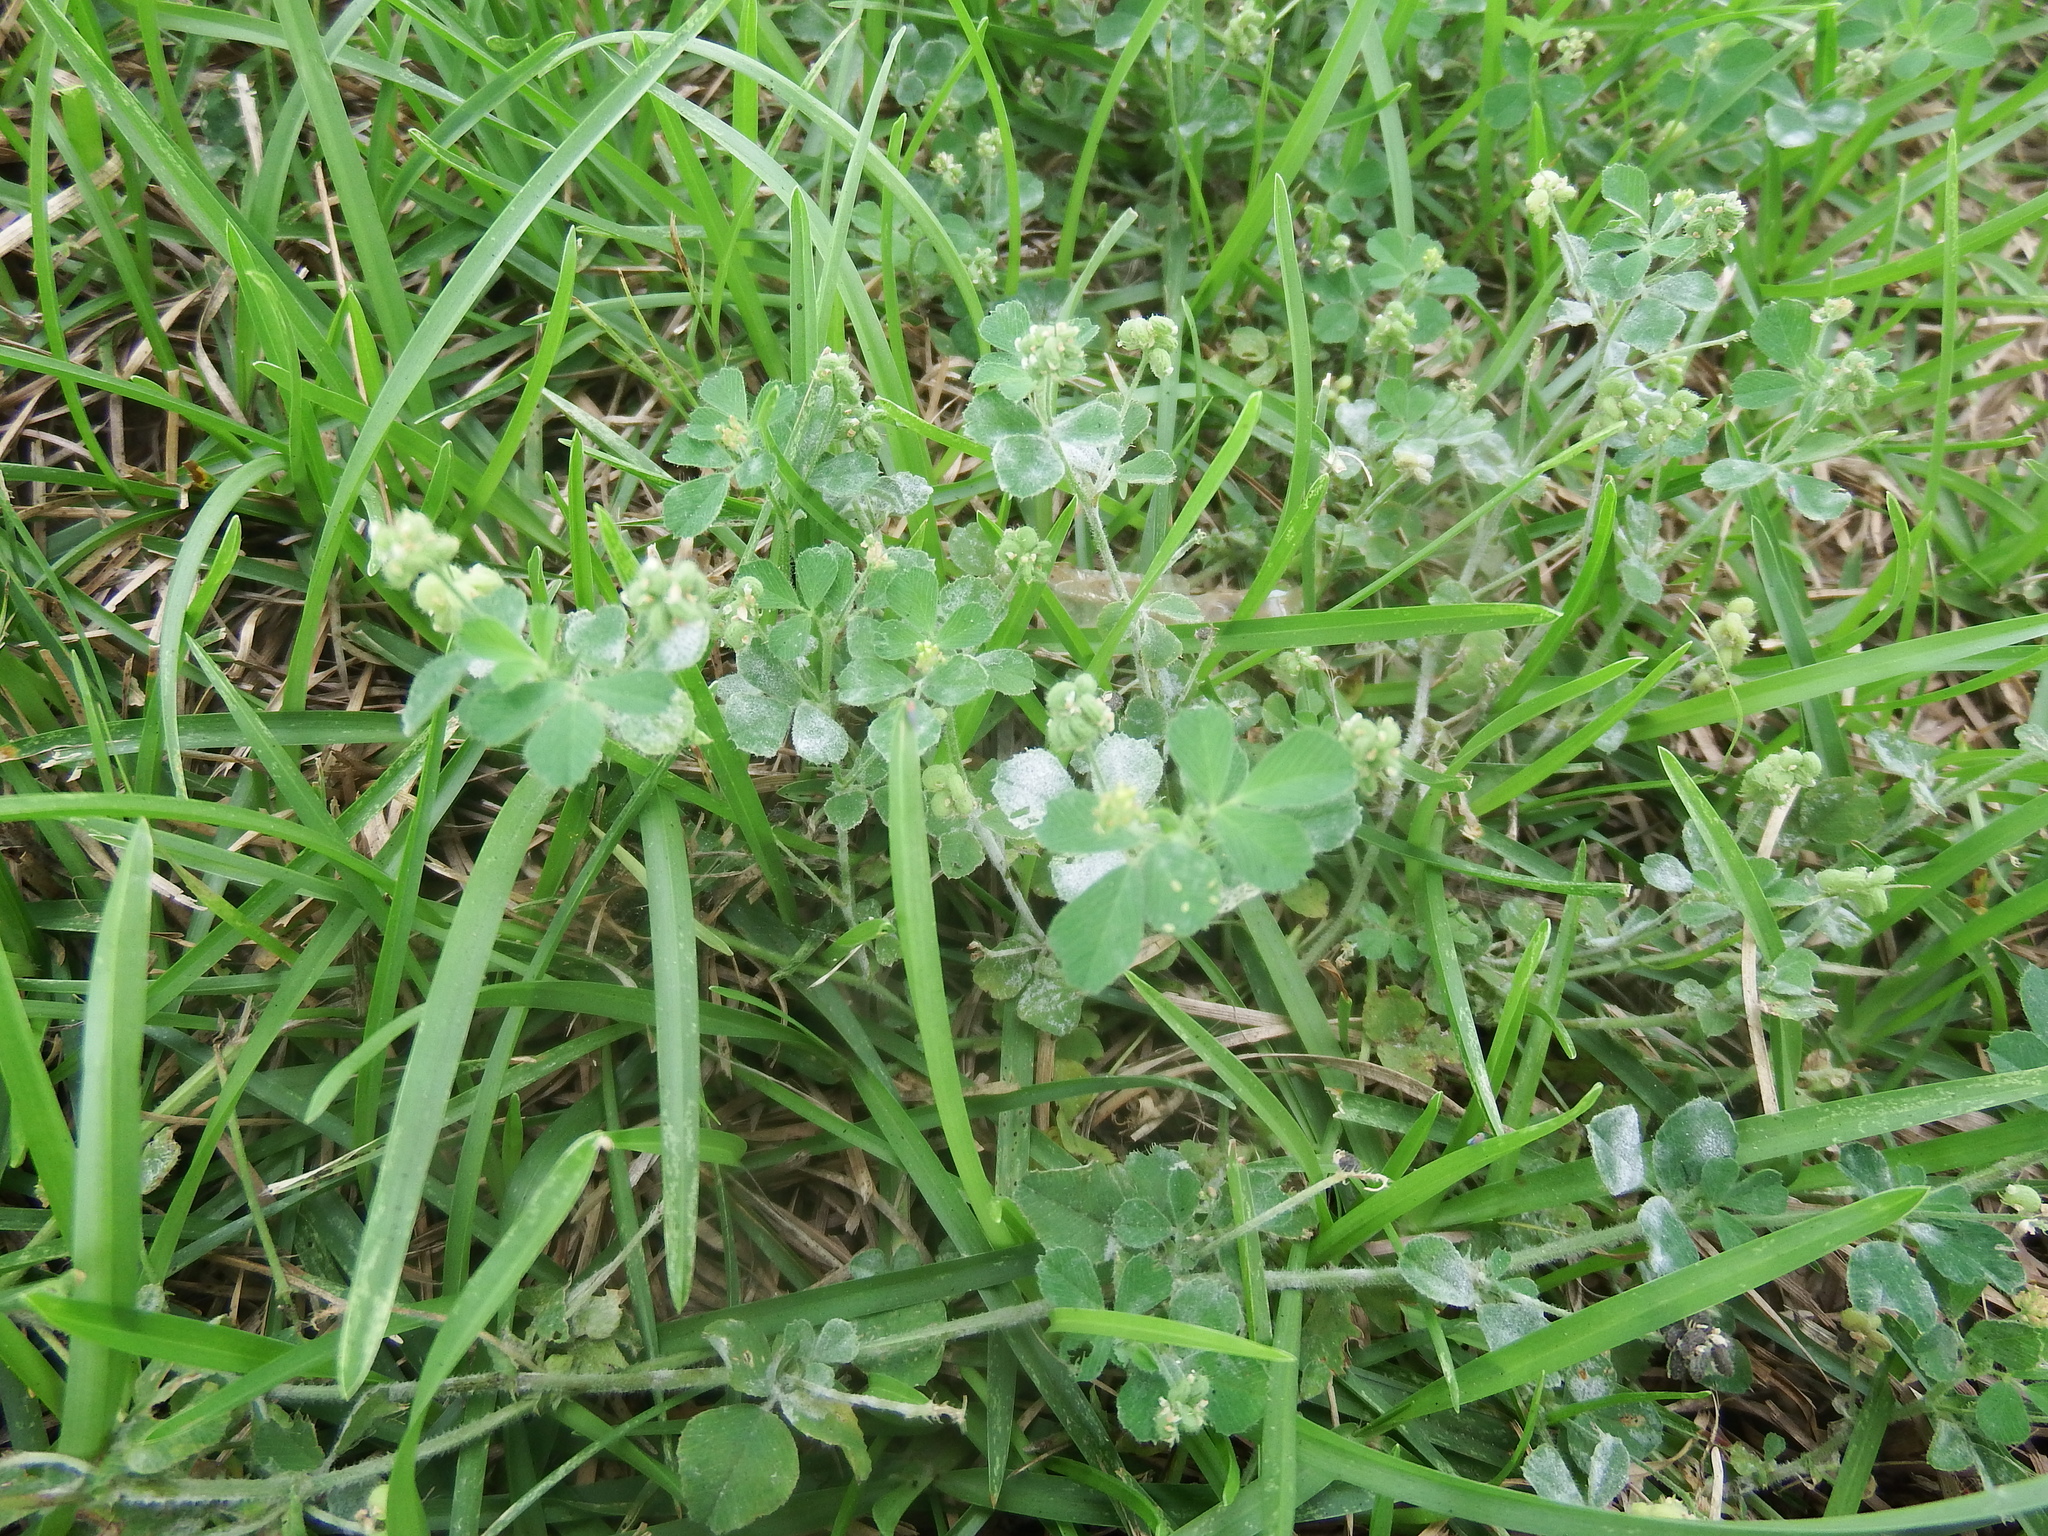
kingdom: Plantae
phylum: Tracheophyta
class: Magnoliopsida
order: Fabales
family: Fabaceae
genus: Medicago
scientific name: Medicago lupulina
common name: Black medick
